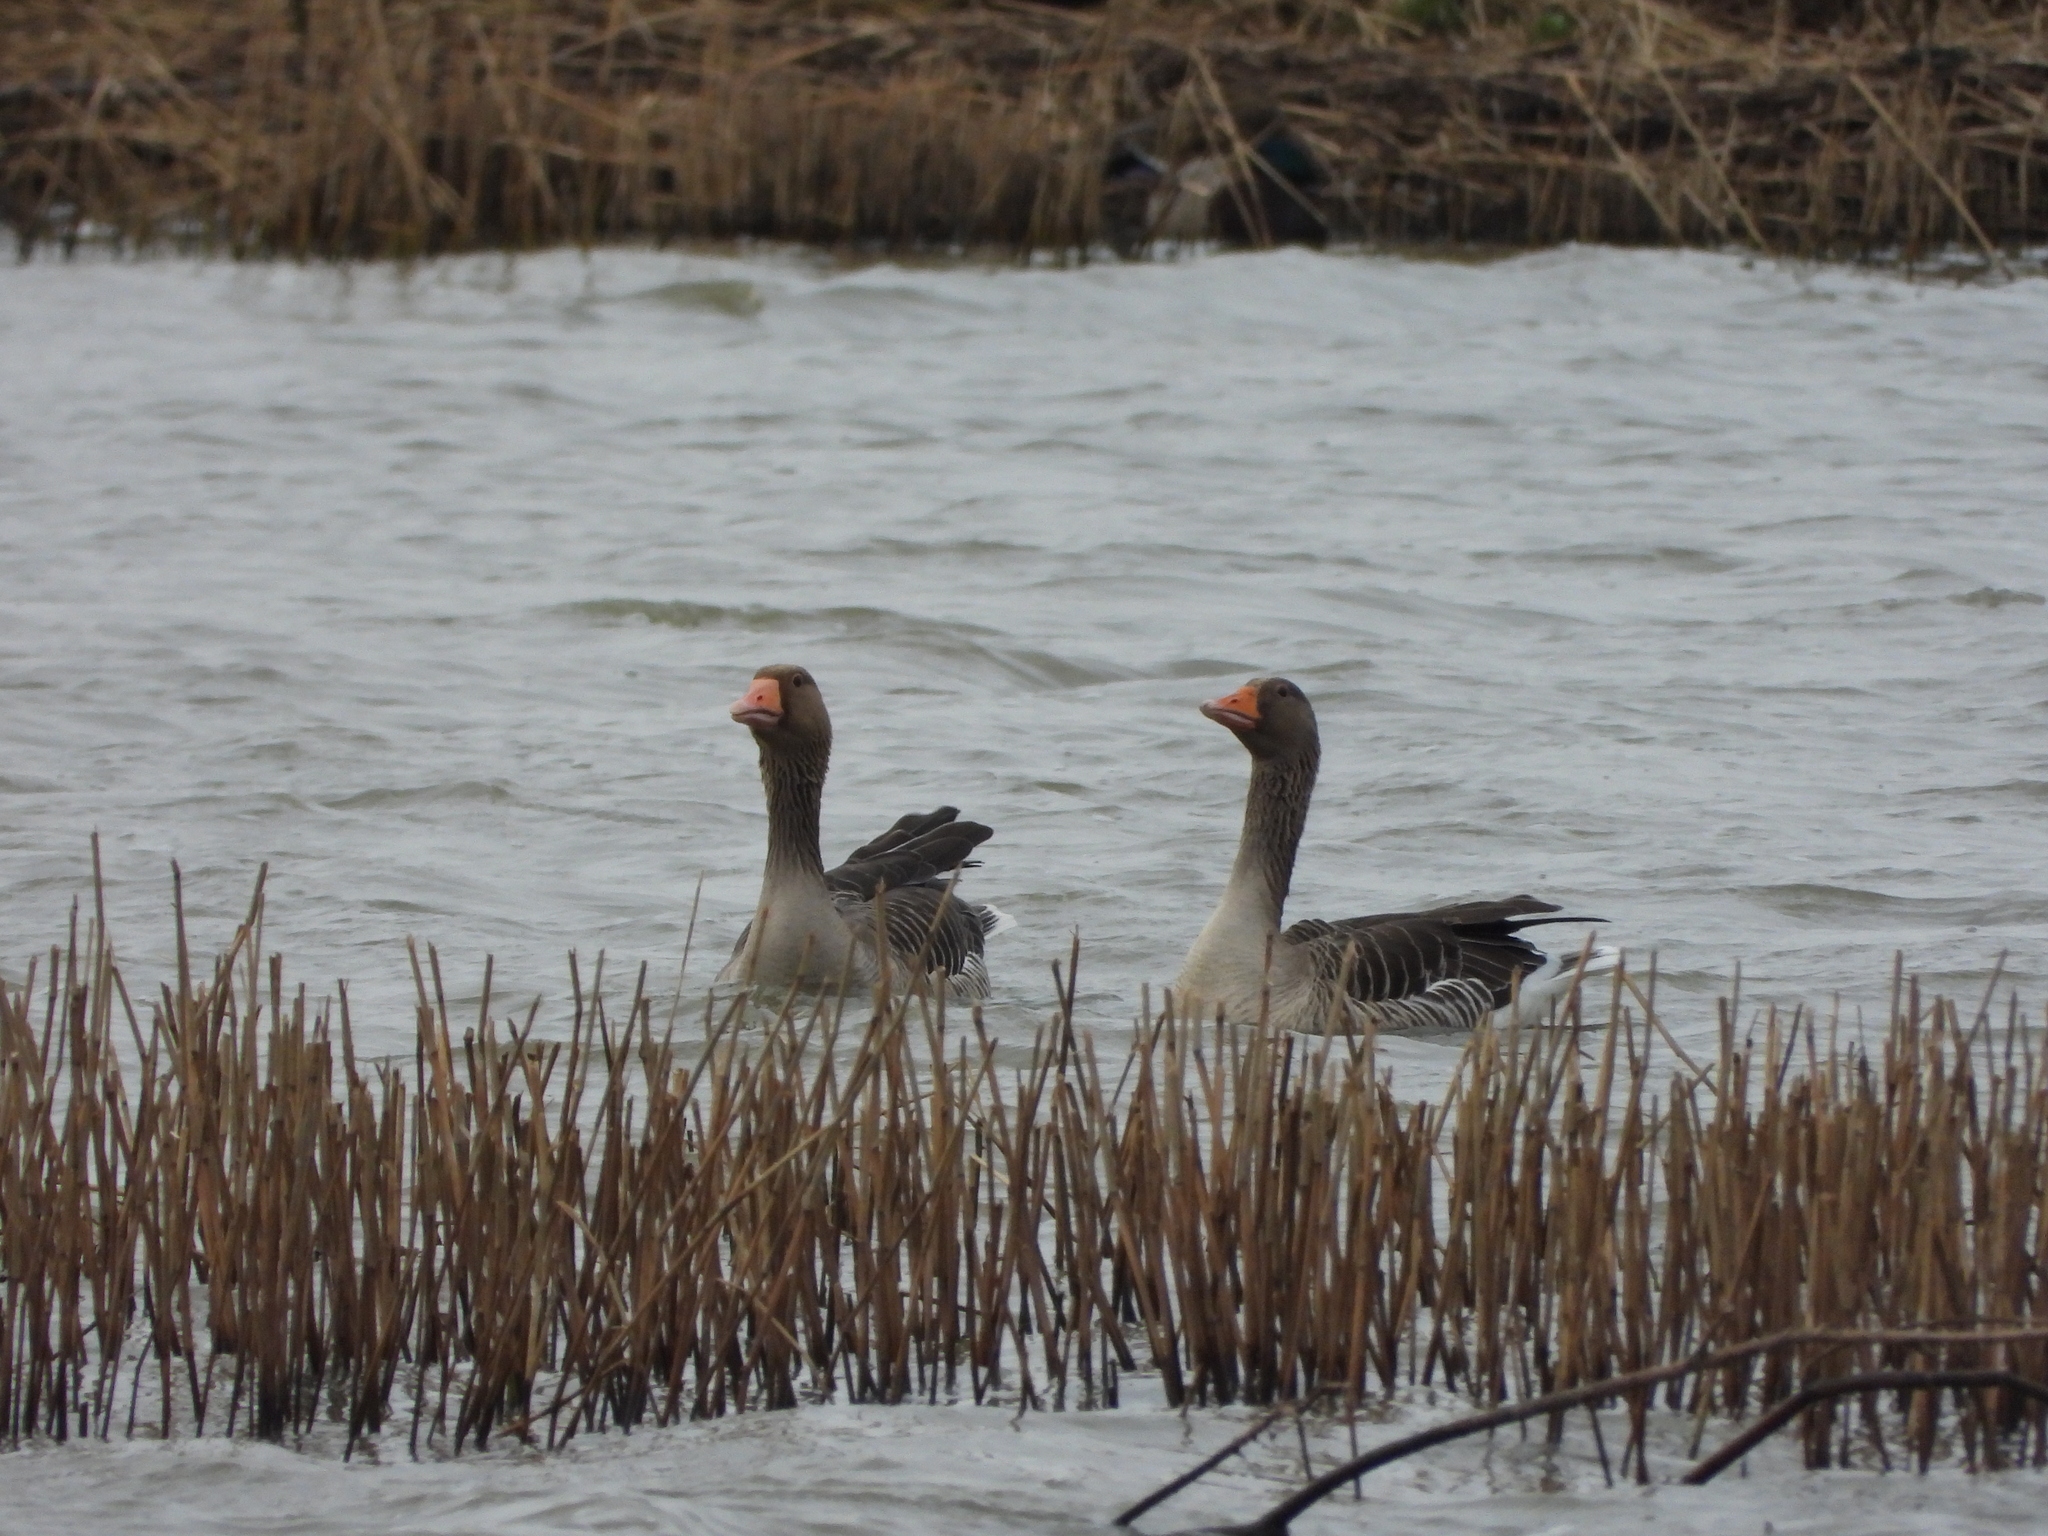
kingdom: Animalia
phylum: Chordata
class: Aves
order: Anseriformes
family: Anatidae
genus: Anser
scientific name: Anser anser
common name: Greylag goose
